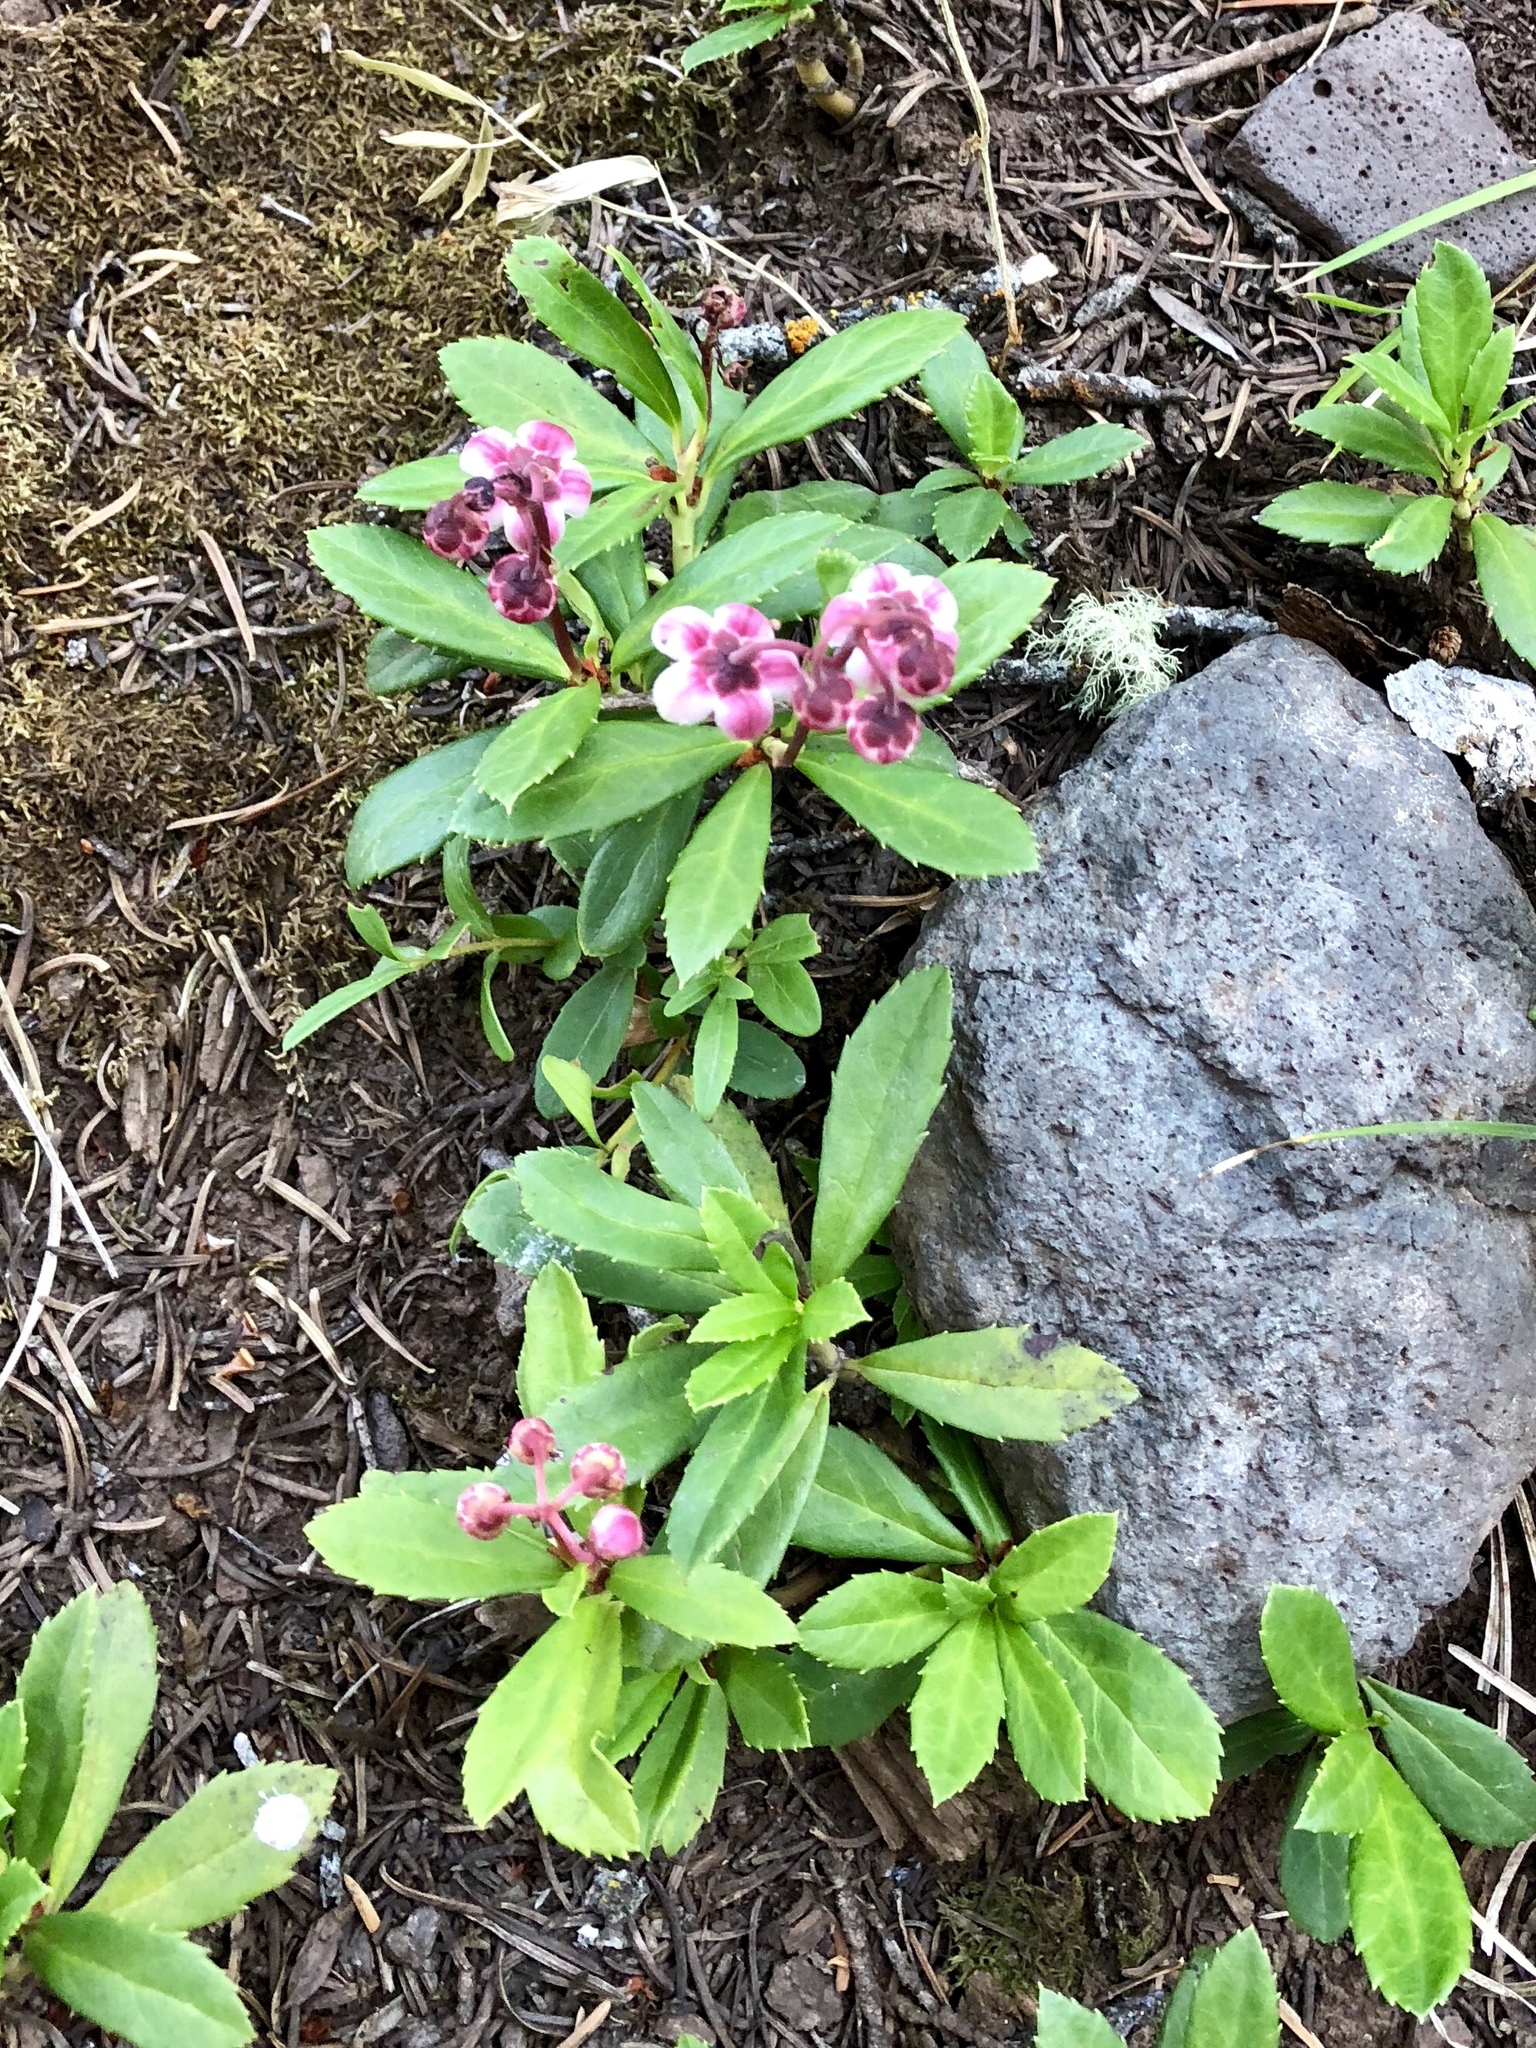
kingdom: Plantae
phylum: Tracheophyta
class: Magnoliopsida
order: Ericales
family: Ericaceae
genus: Chimaphila
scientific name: Chimaphila umbellata
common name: Pipsissewa
